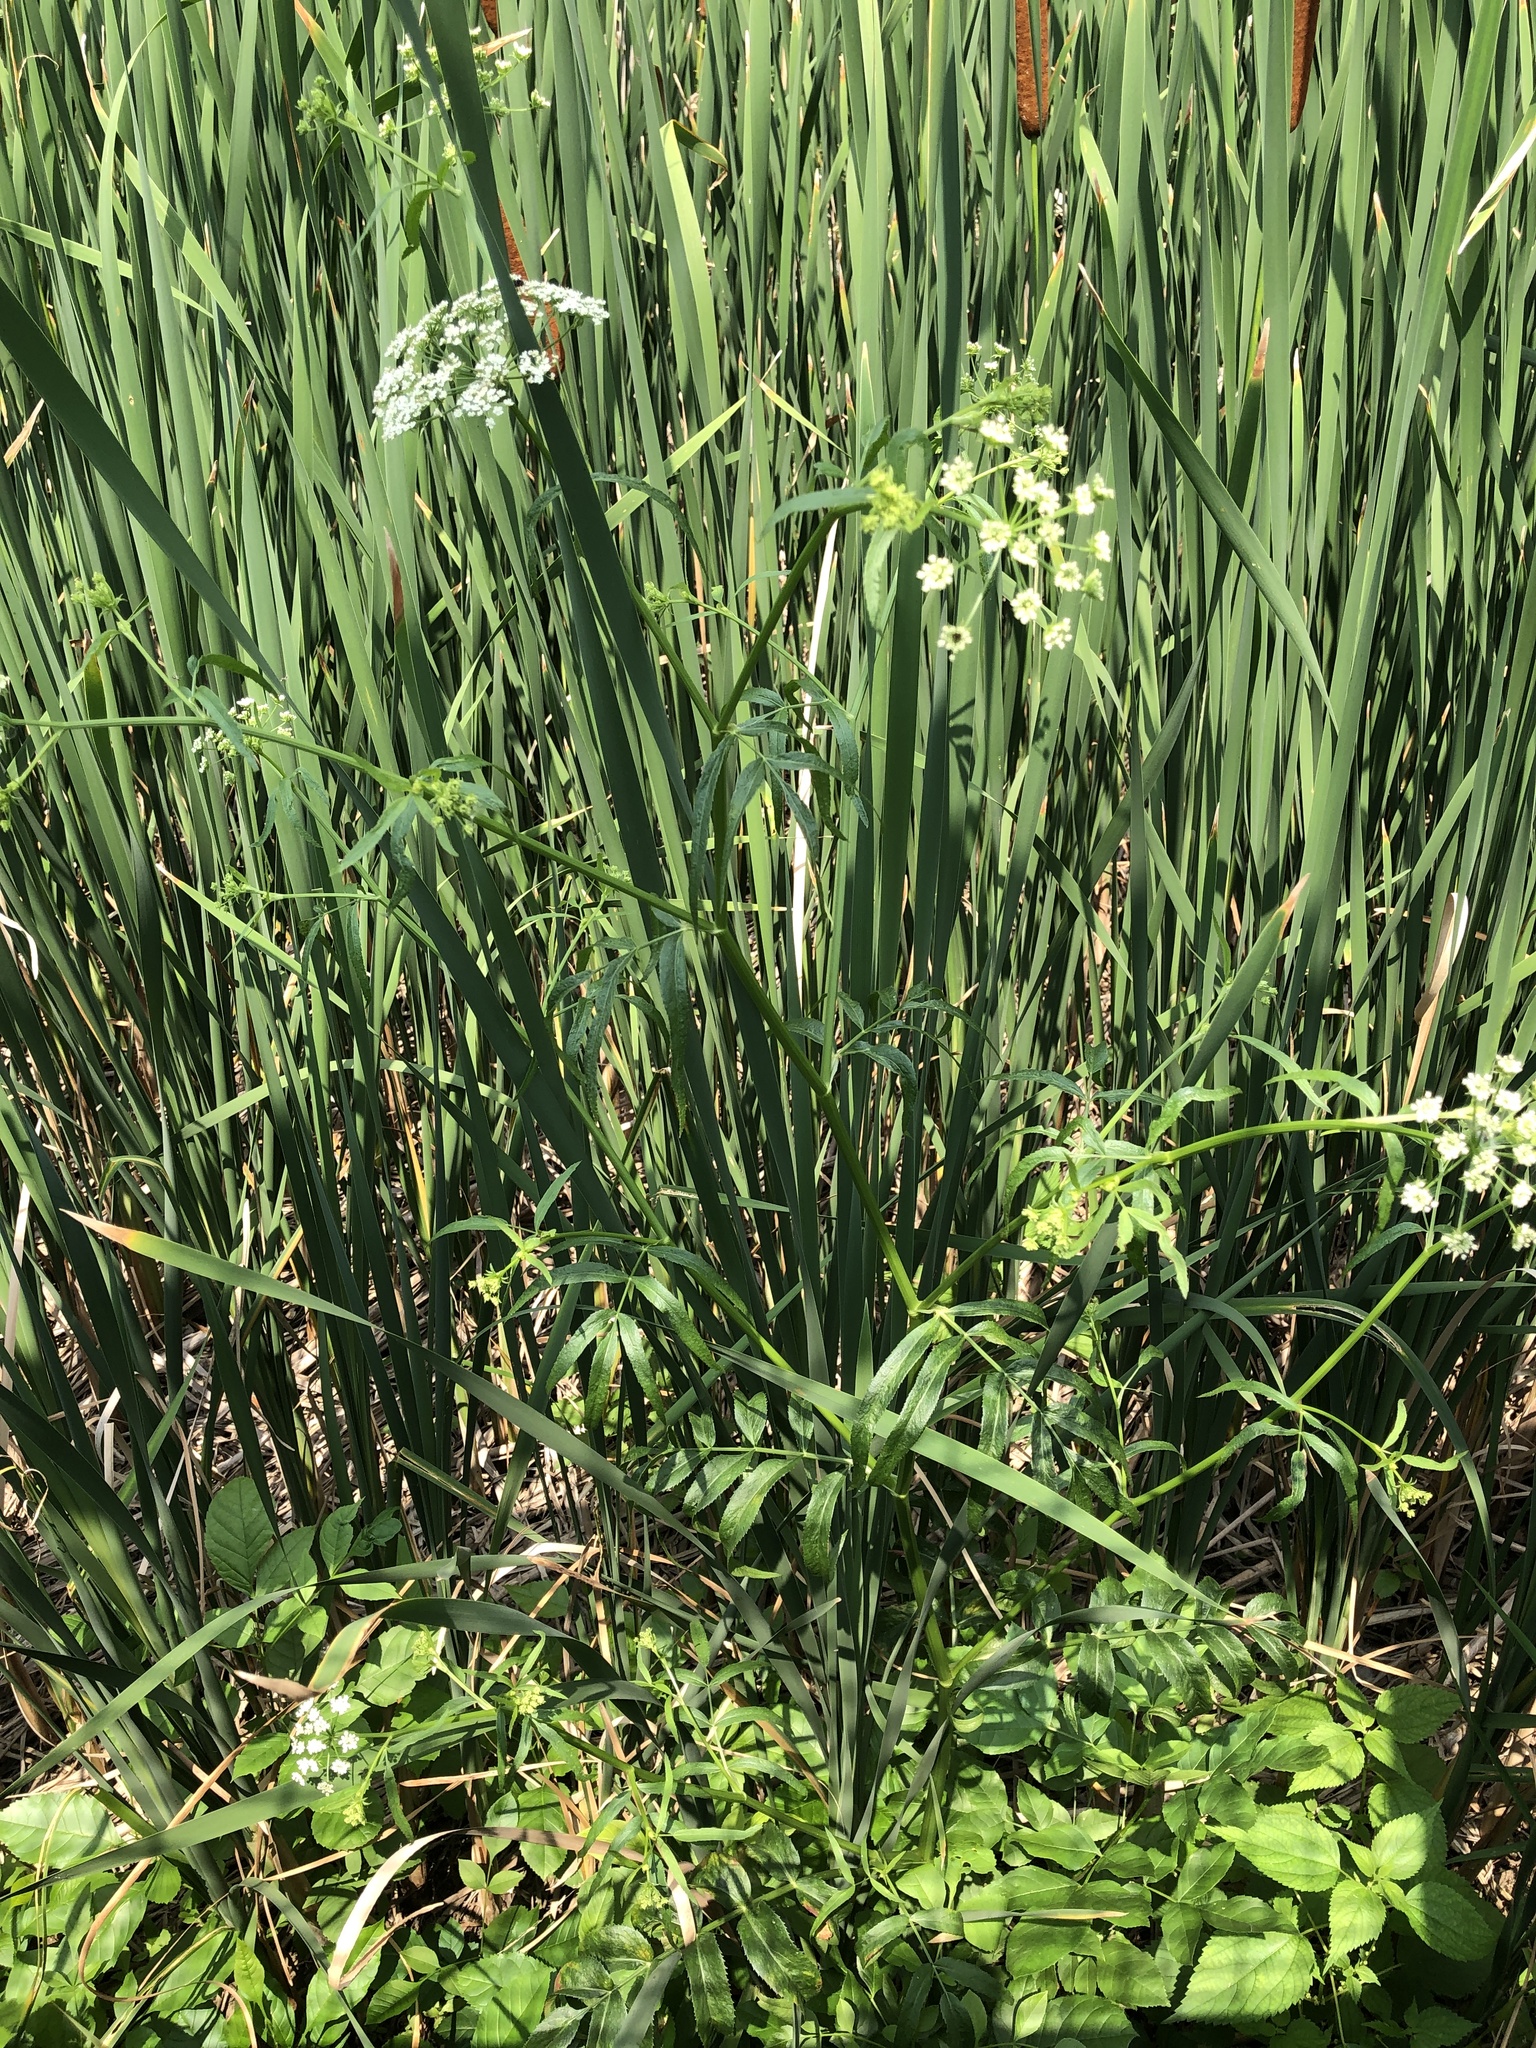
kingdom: Plantae
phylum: Tracheophyta
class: Magnoliopsida
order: Apiales
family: Apiaceae
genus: Sium
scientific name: Sium suave
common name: Hemlock water-parsnip
